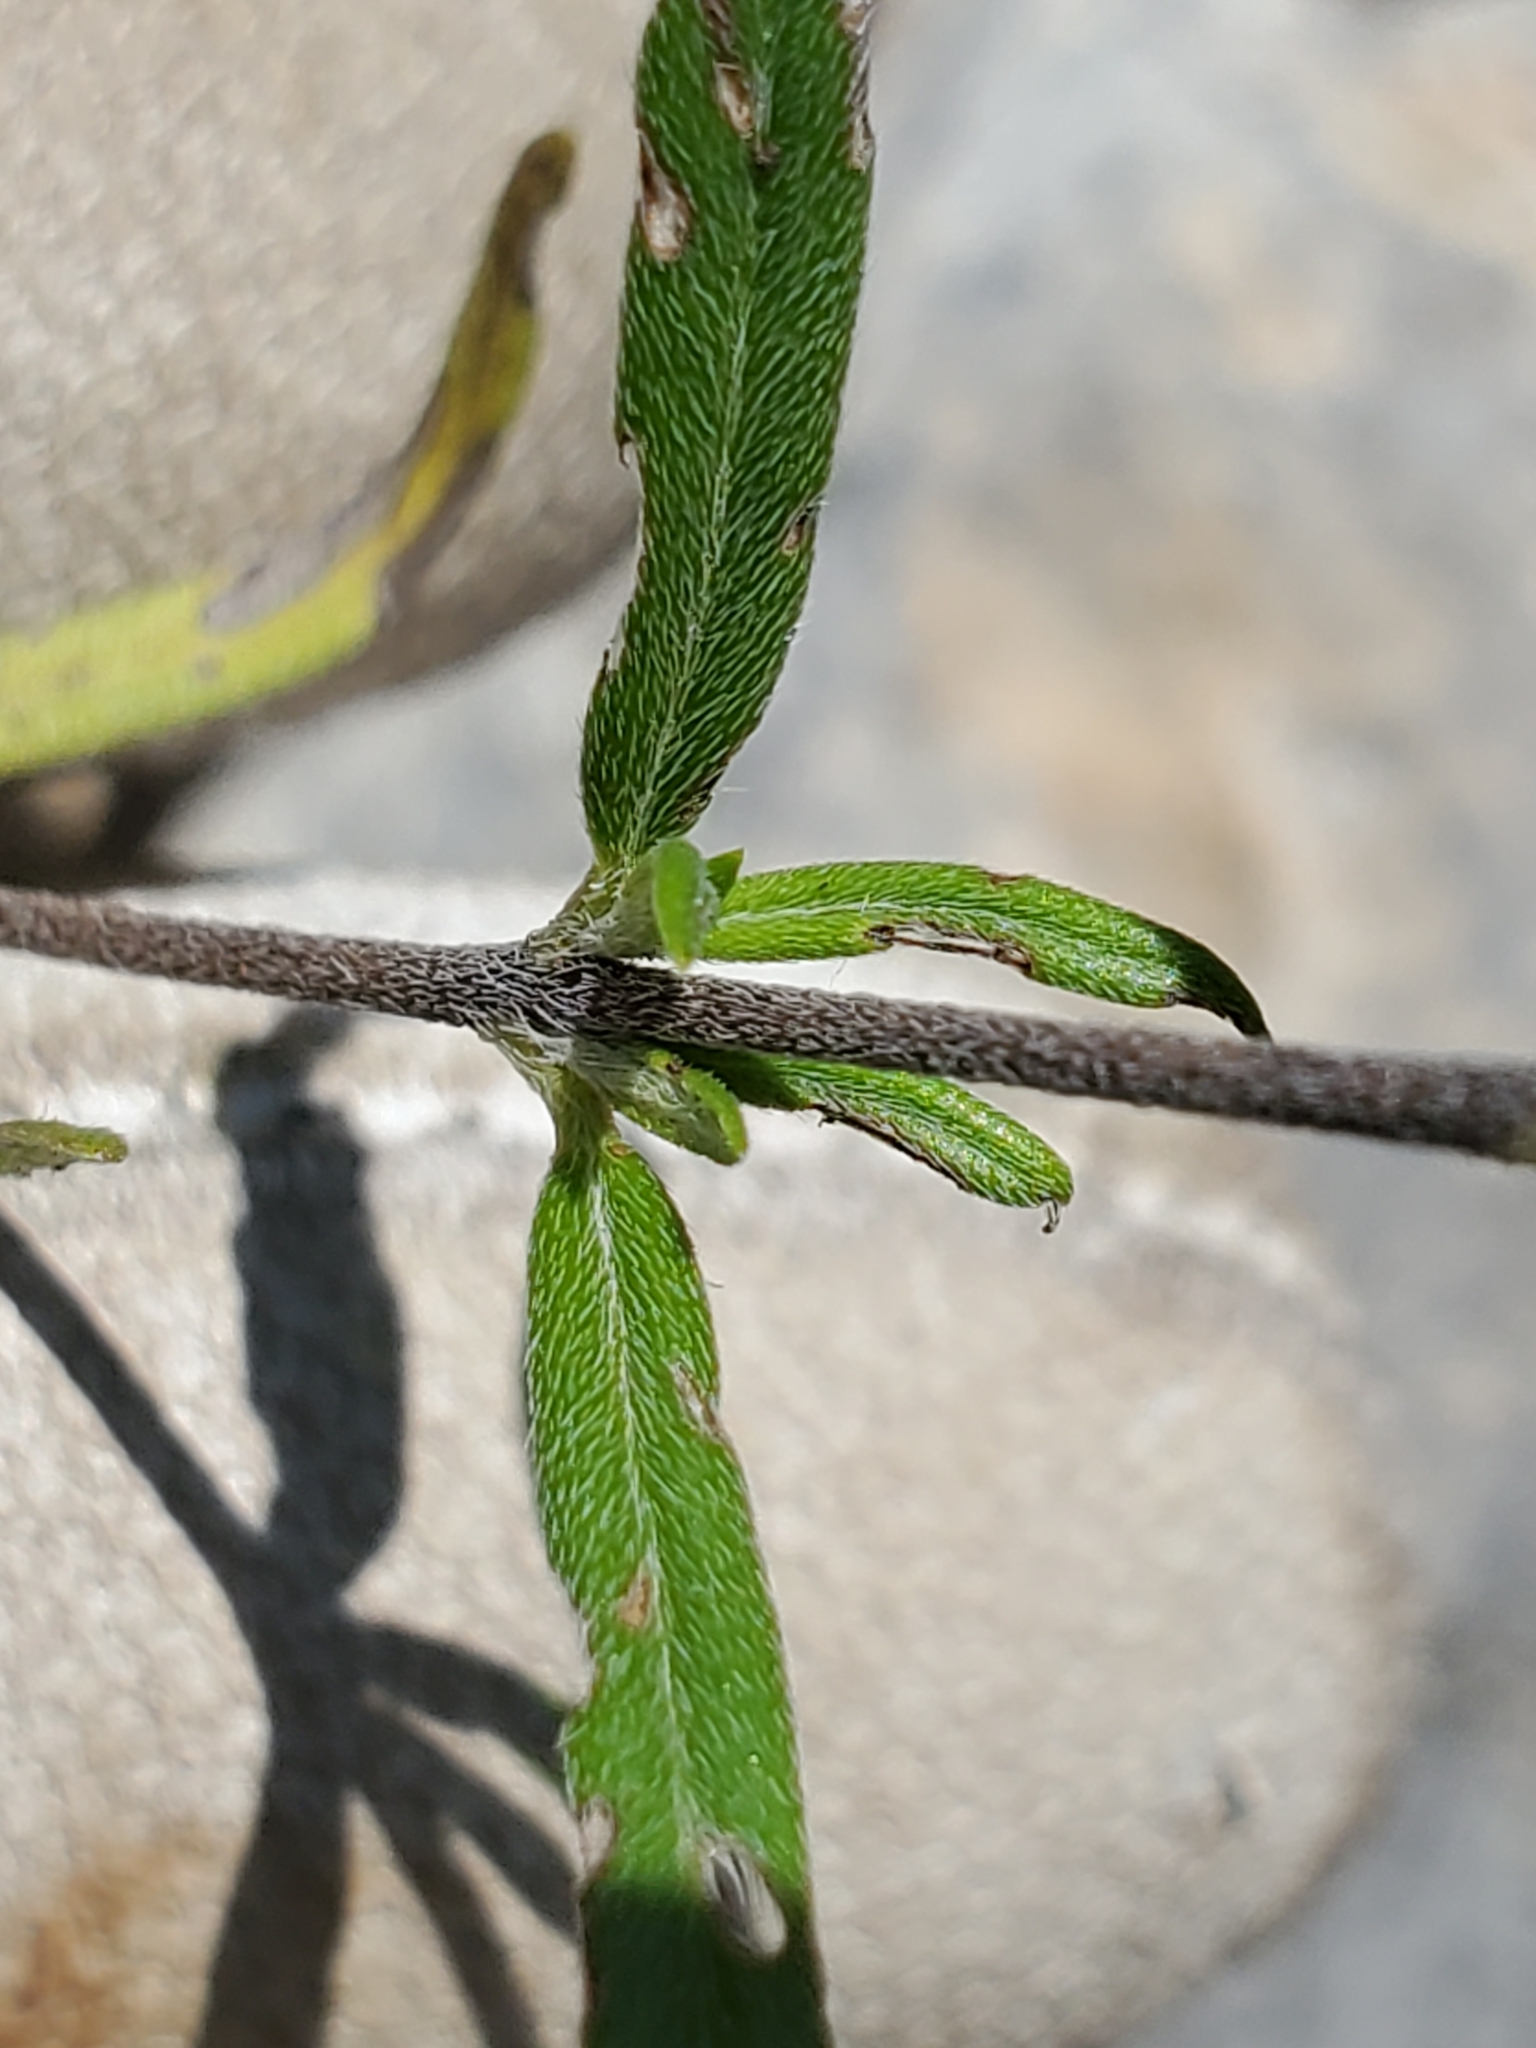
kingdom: Plantae
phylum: Tracheophyta
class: Magnoliopsida
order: Boraginales
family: Heliotropiaceae
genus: Euploca
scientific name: Euploca tenella
